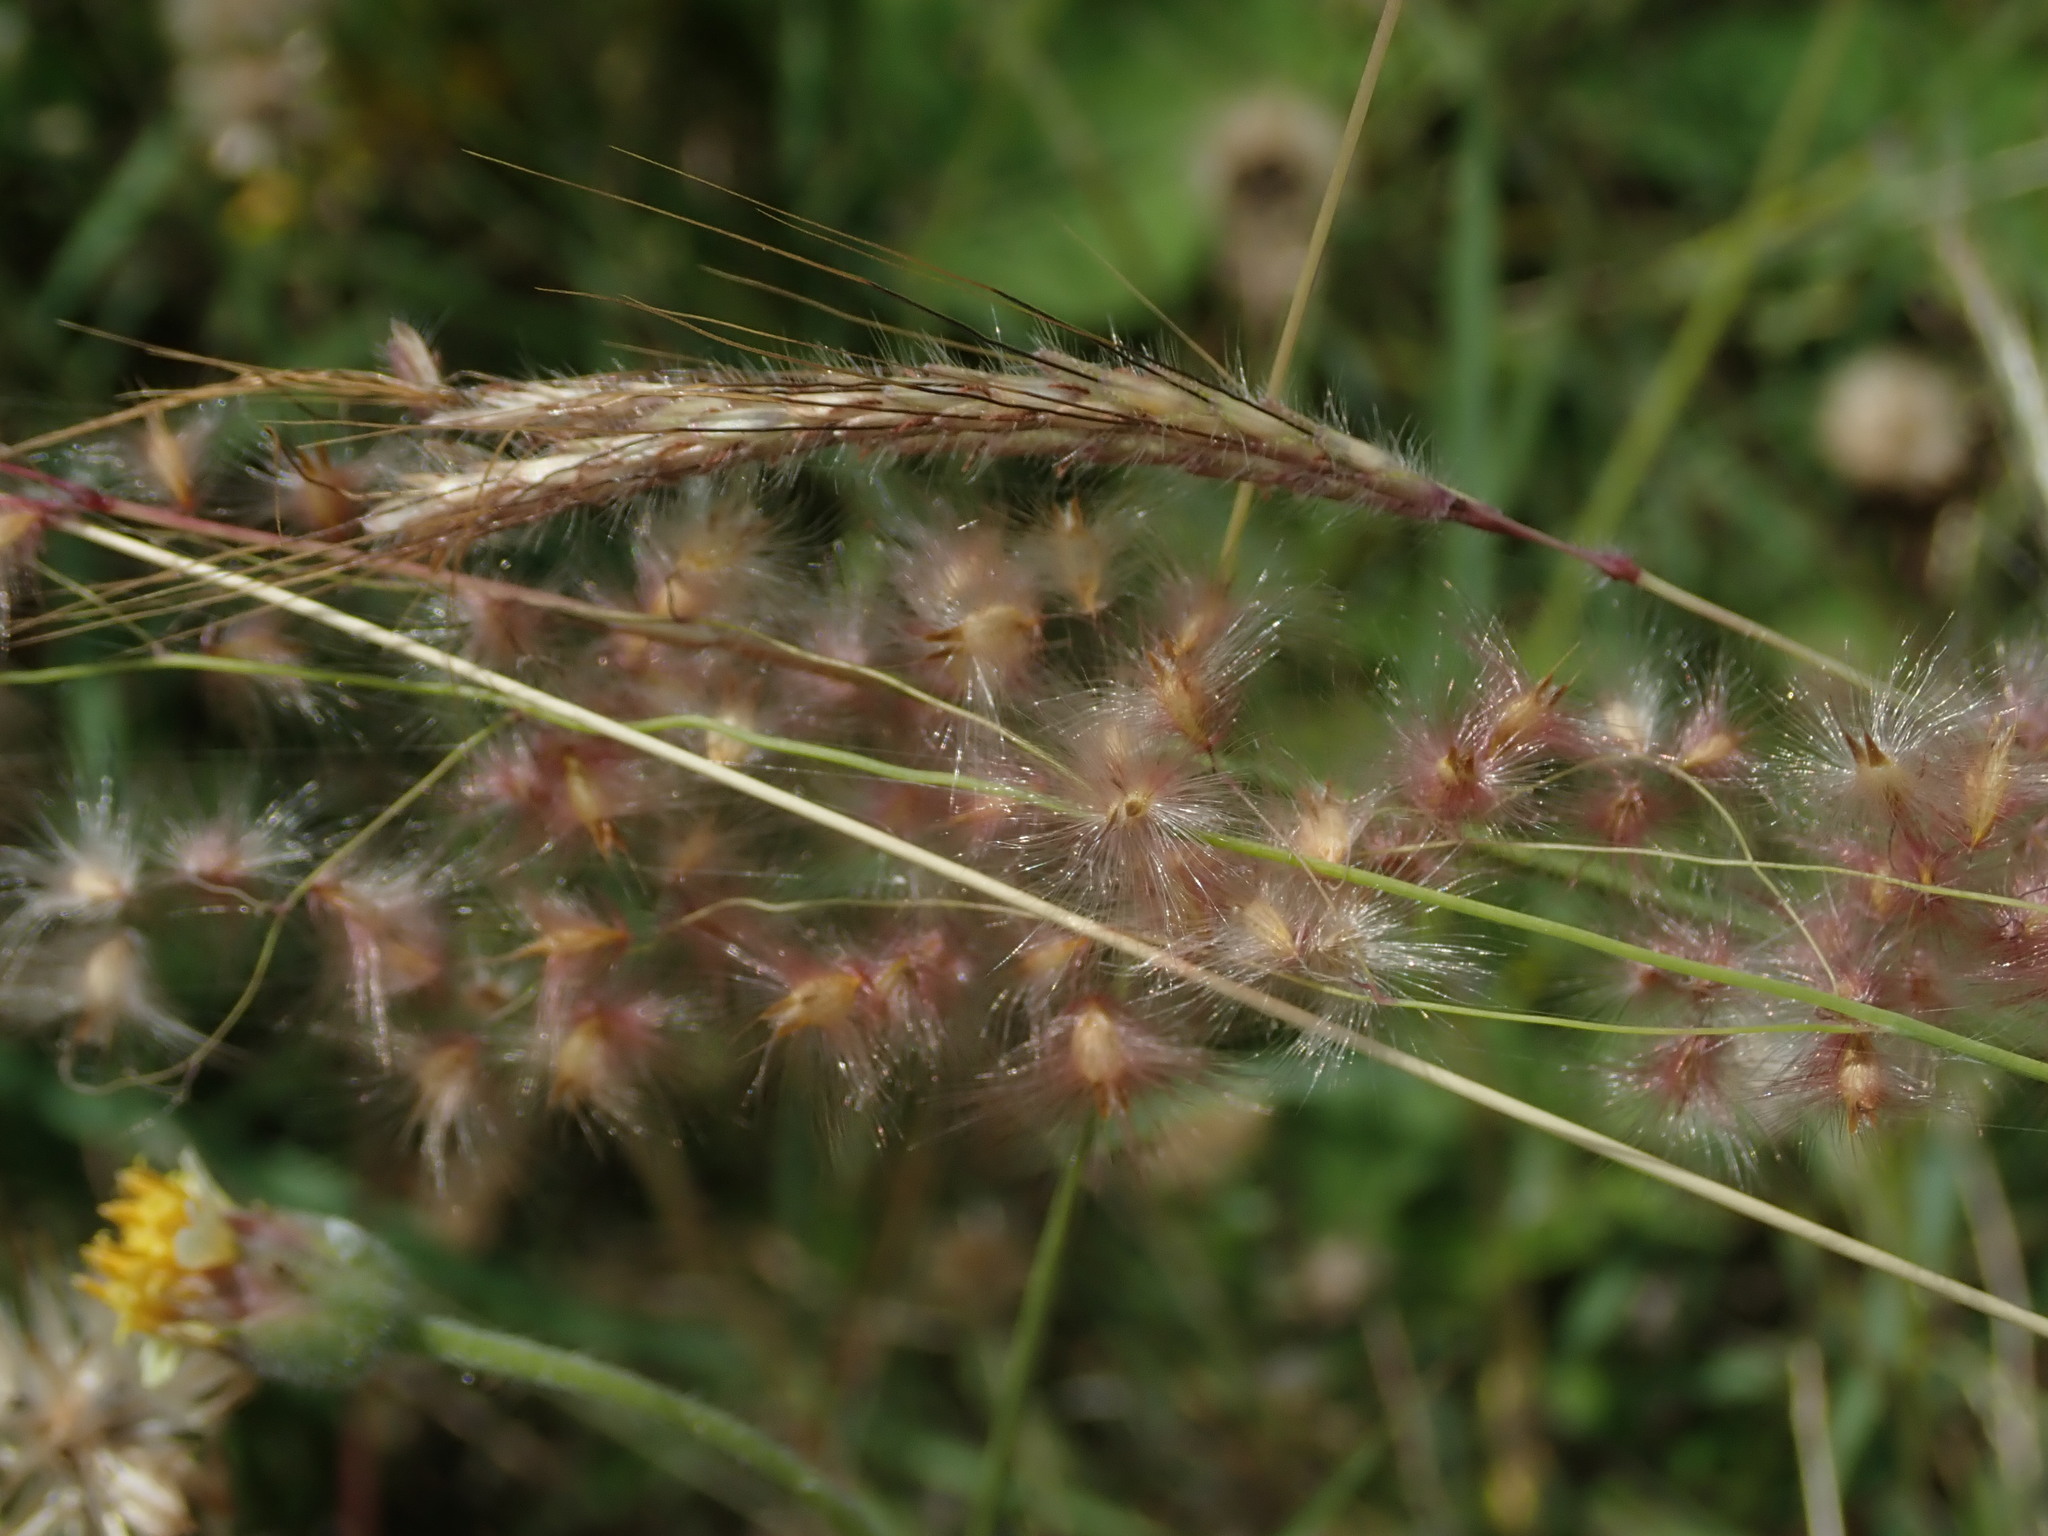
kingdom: Plantae
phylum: Tracheophyta
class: Liliopsida
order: Poales
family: Poaceae
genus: Melinis
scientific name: Melinis repens
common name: Rose natal grass
